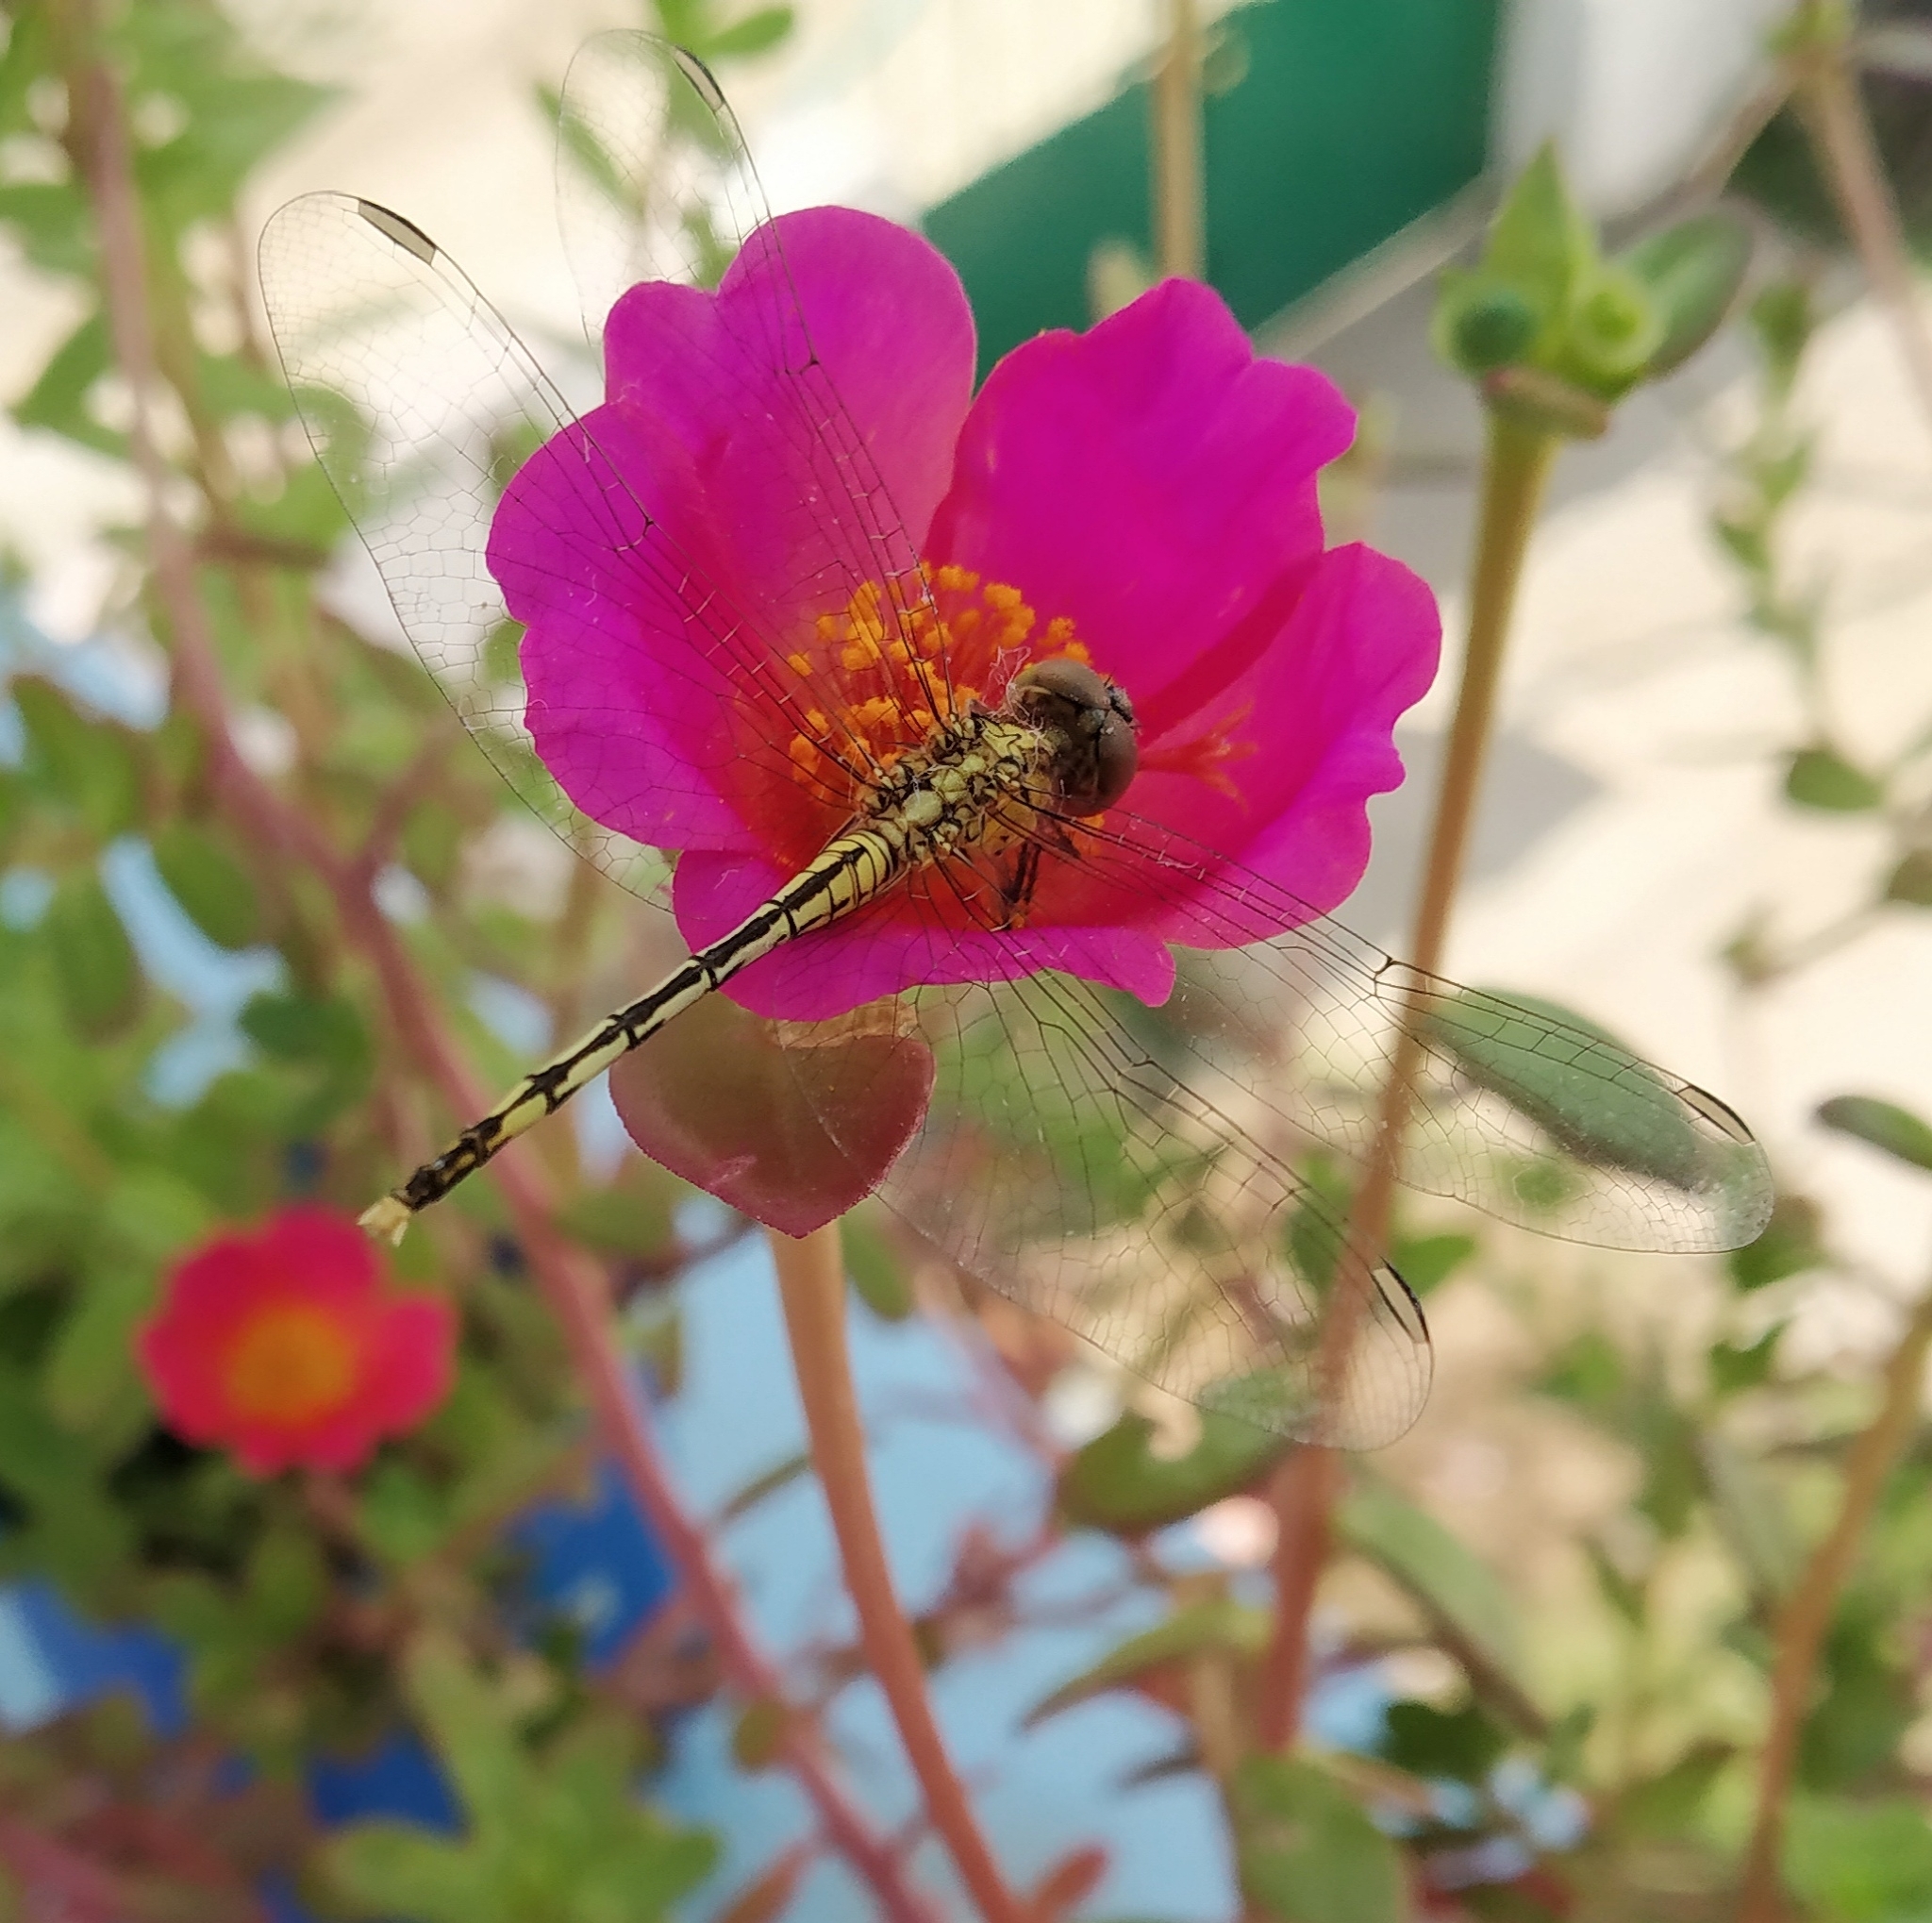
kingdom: Animalia
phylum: Arthropoda
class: Insecta
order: Odonata
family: Libellulidae
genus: Diplacodes
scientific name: Diplacodes trivialis
